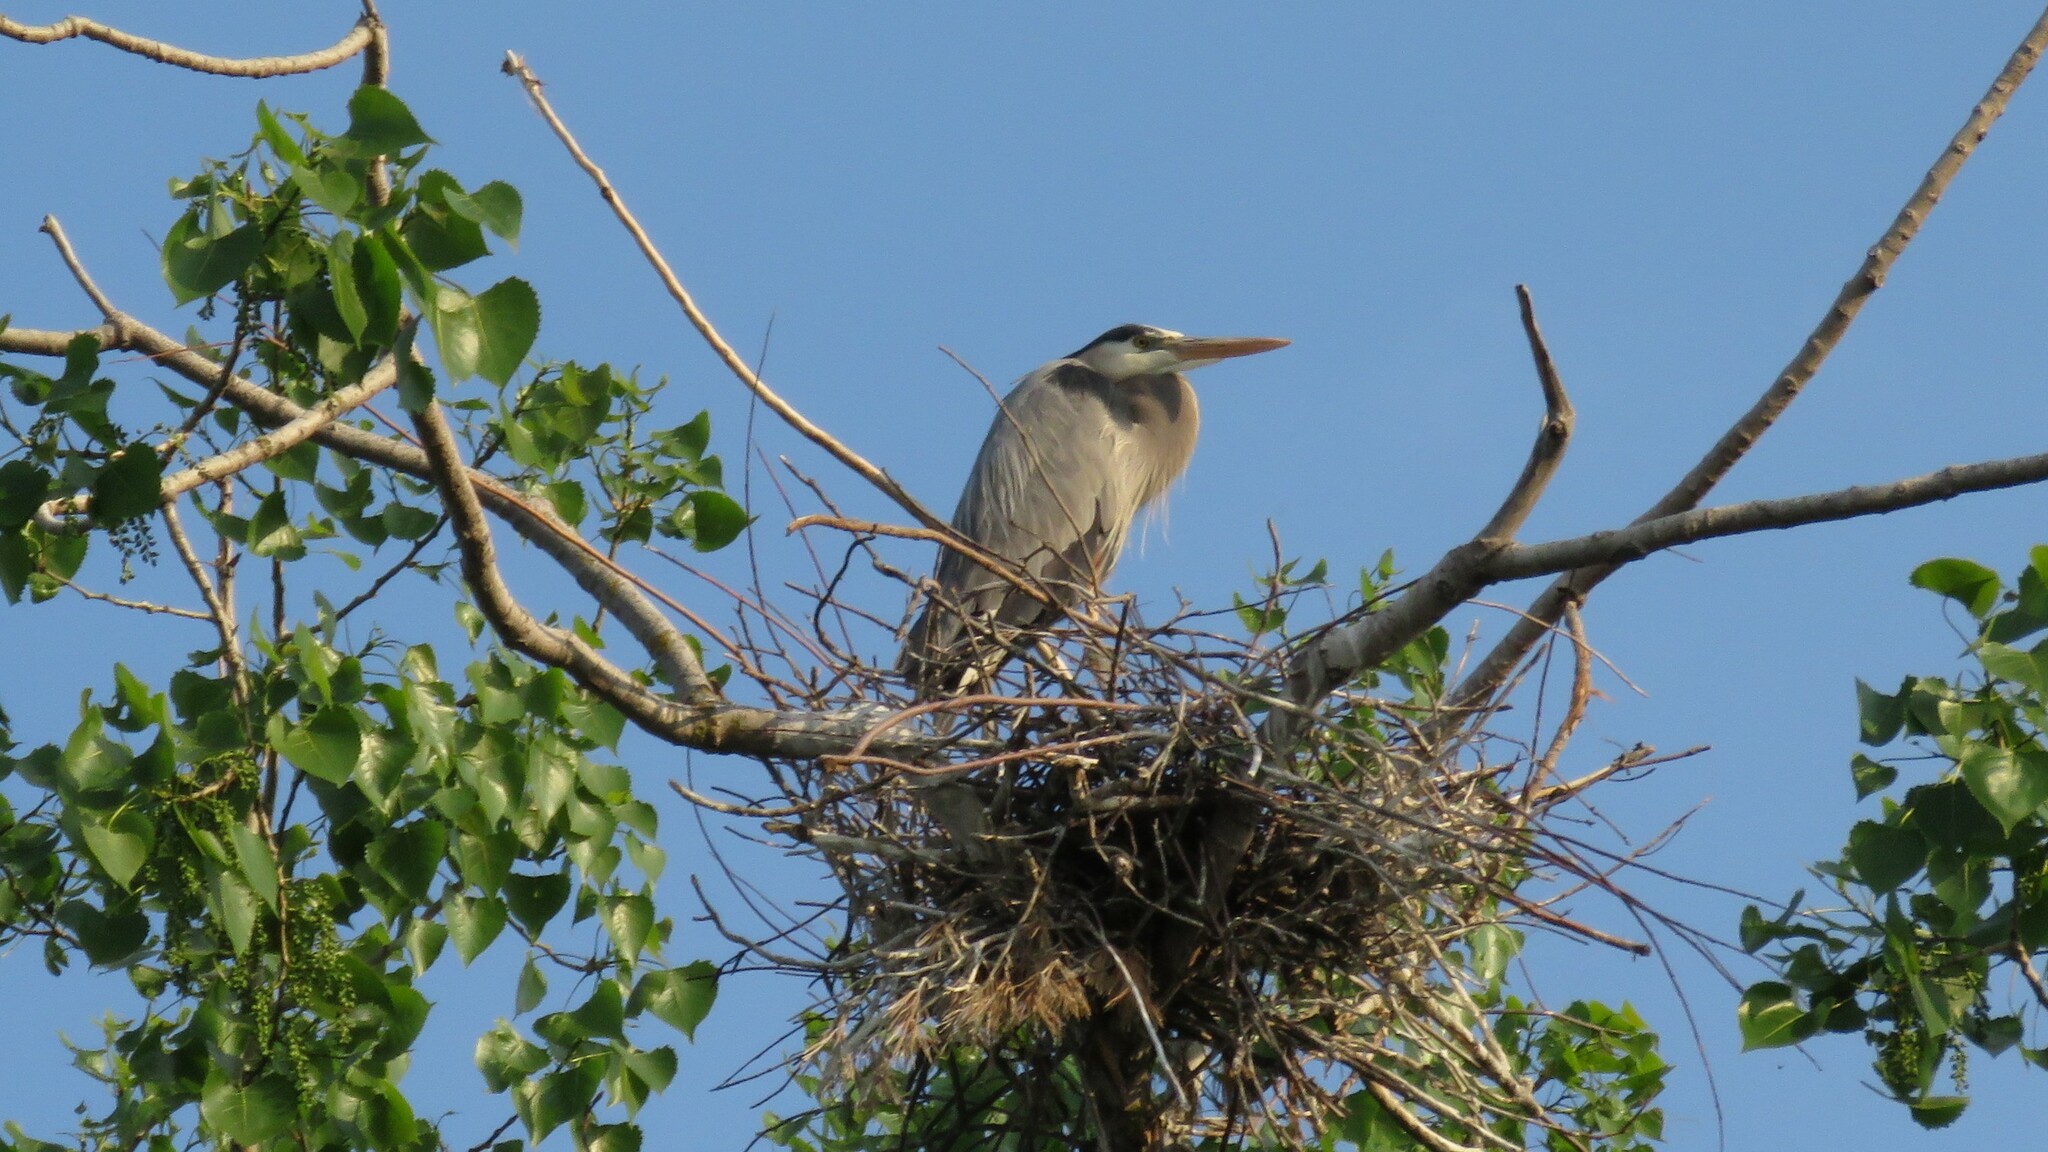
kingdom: Animalia
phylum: Chordata
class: Aves
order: Pelecaniformes
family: Ardeidae
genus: Ardea
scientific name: Ardea herodias
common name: Great blue heron
